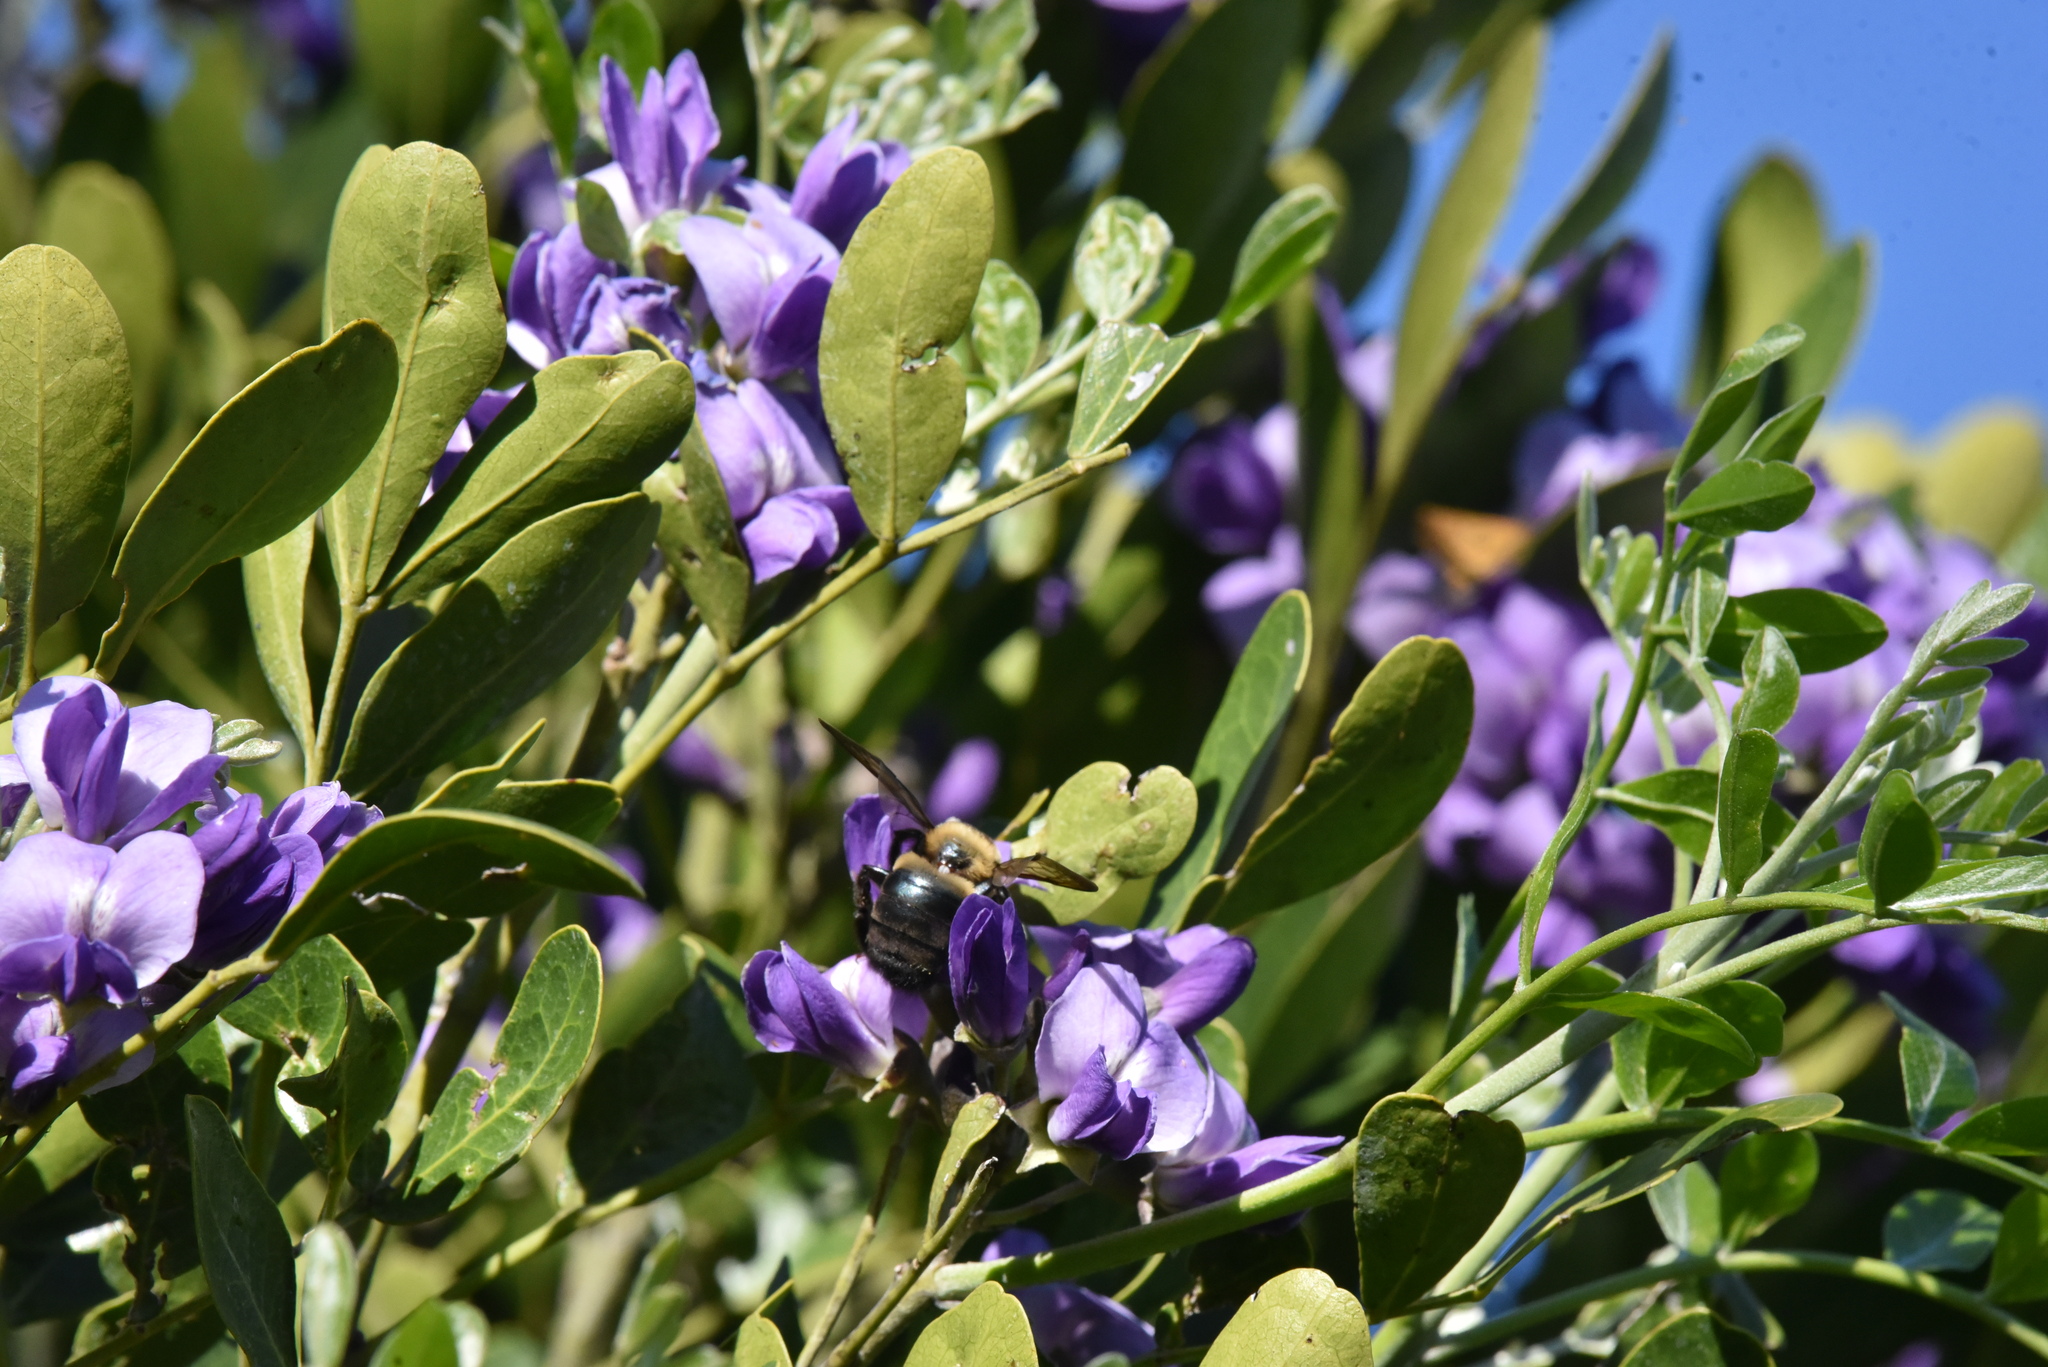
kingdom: Animalia
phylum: Arthropoda
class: Insecta
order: Hymenoptera
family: Apidae
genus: Xylocopa
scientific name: Xylocopa virginica
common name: Carpenter bee
